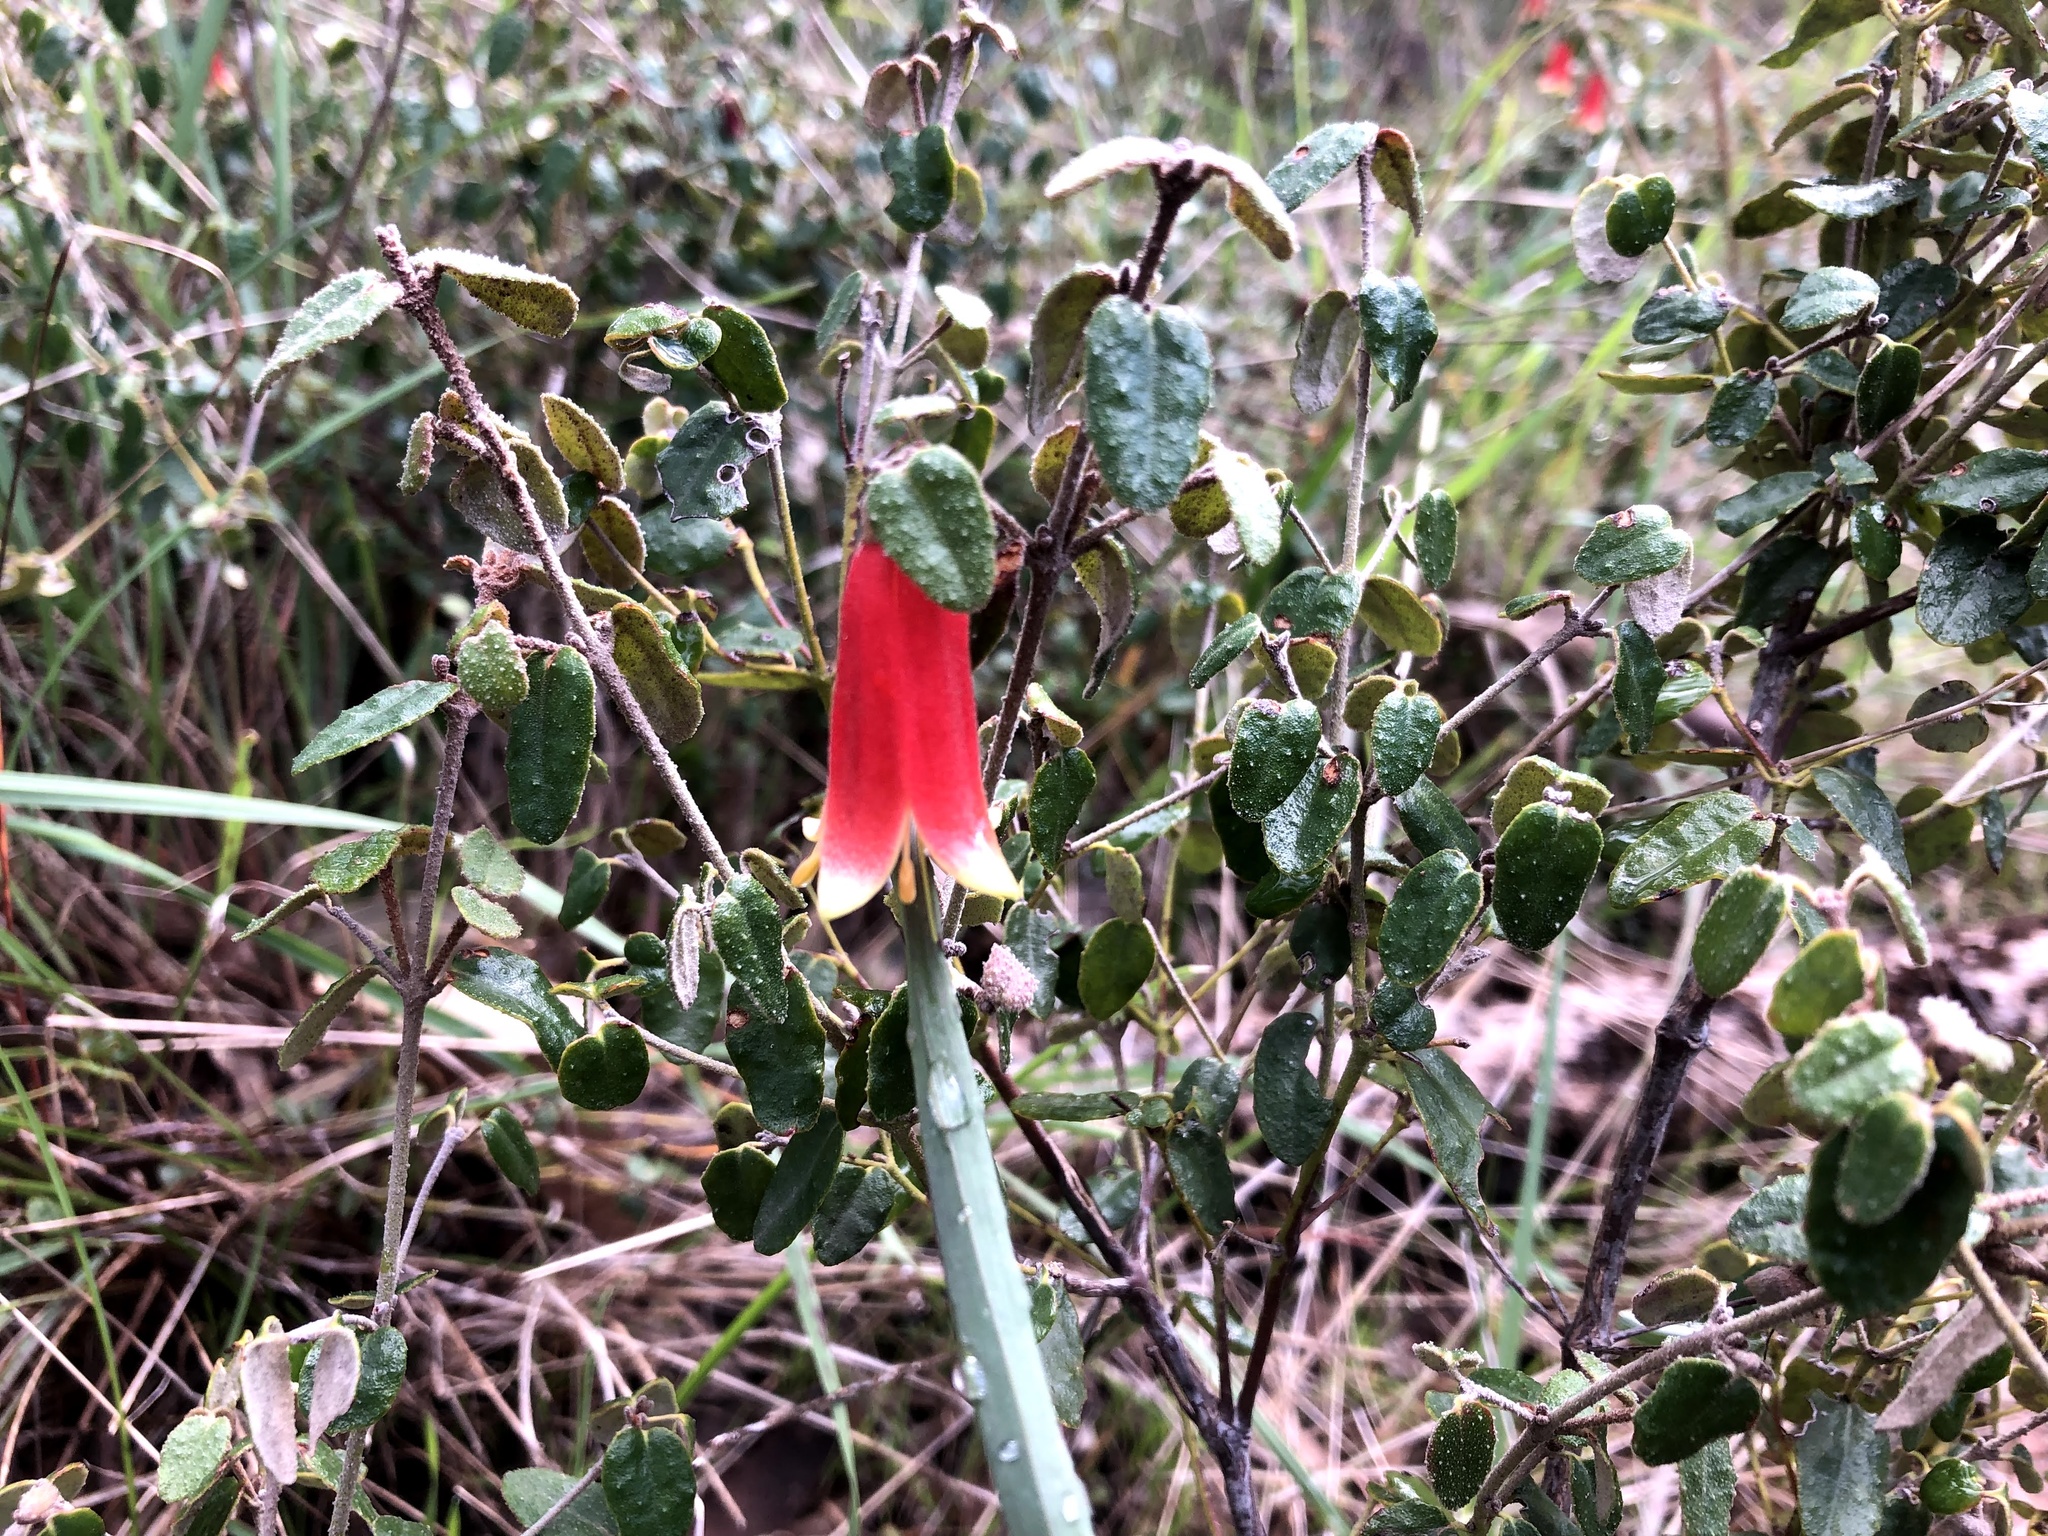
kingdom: Plantae
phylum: Tracheophyta
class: Magnoliopsida
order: Sapindales
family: Rutaceae
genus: Correa
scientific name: Correa reflexa
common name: Common correa
